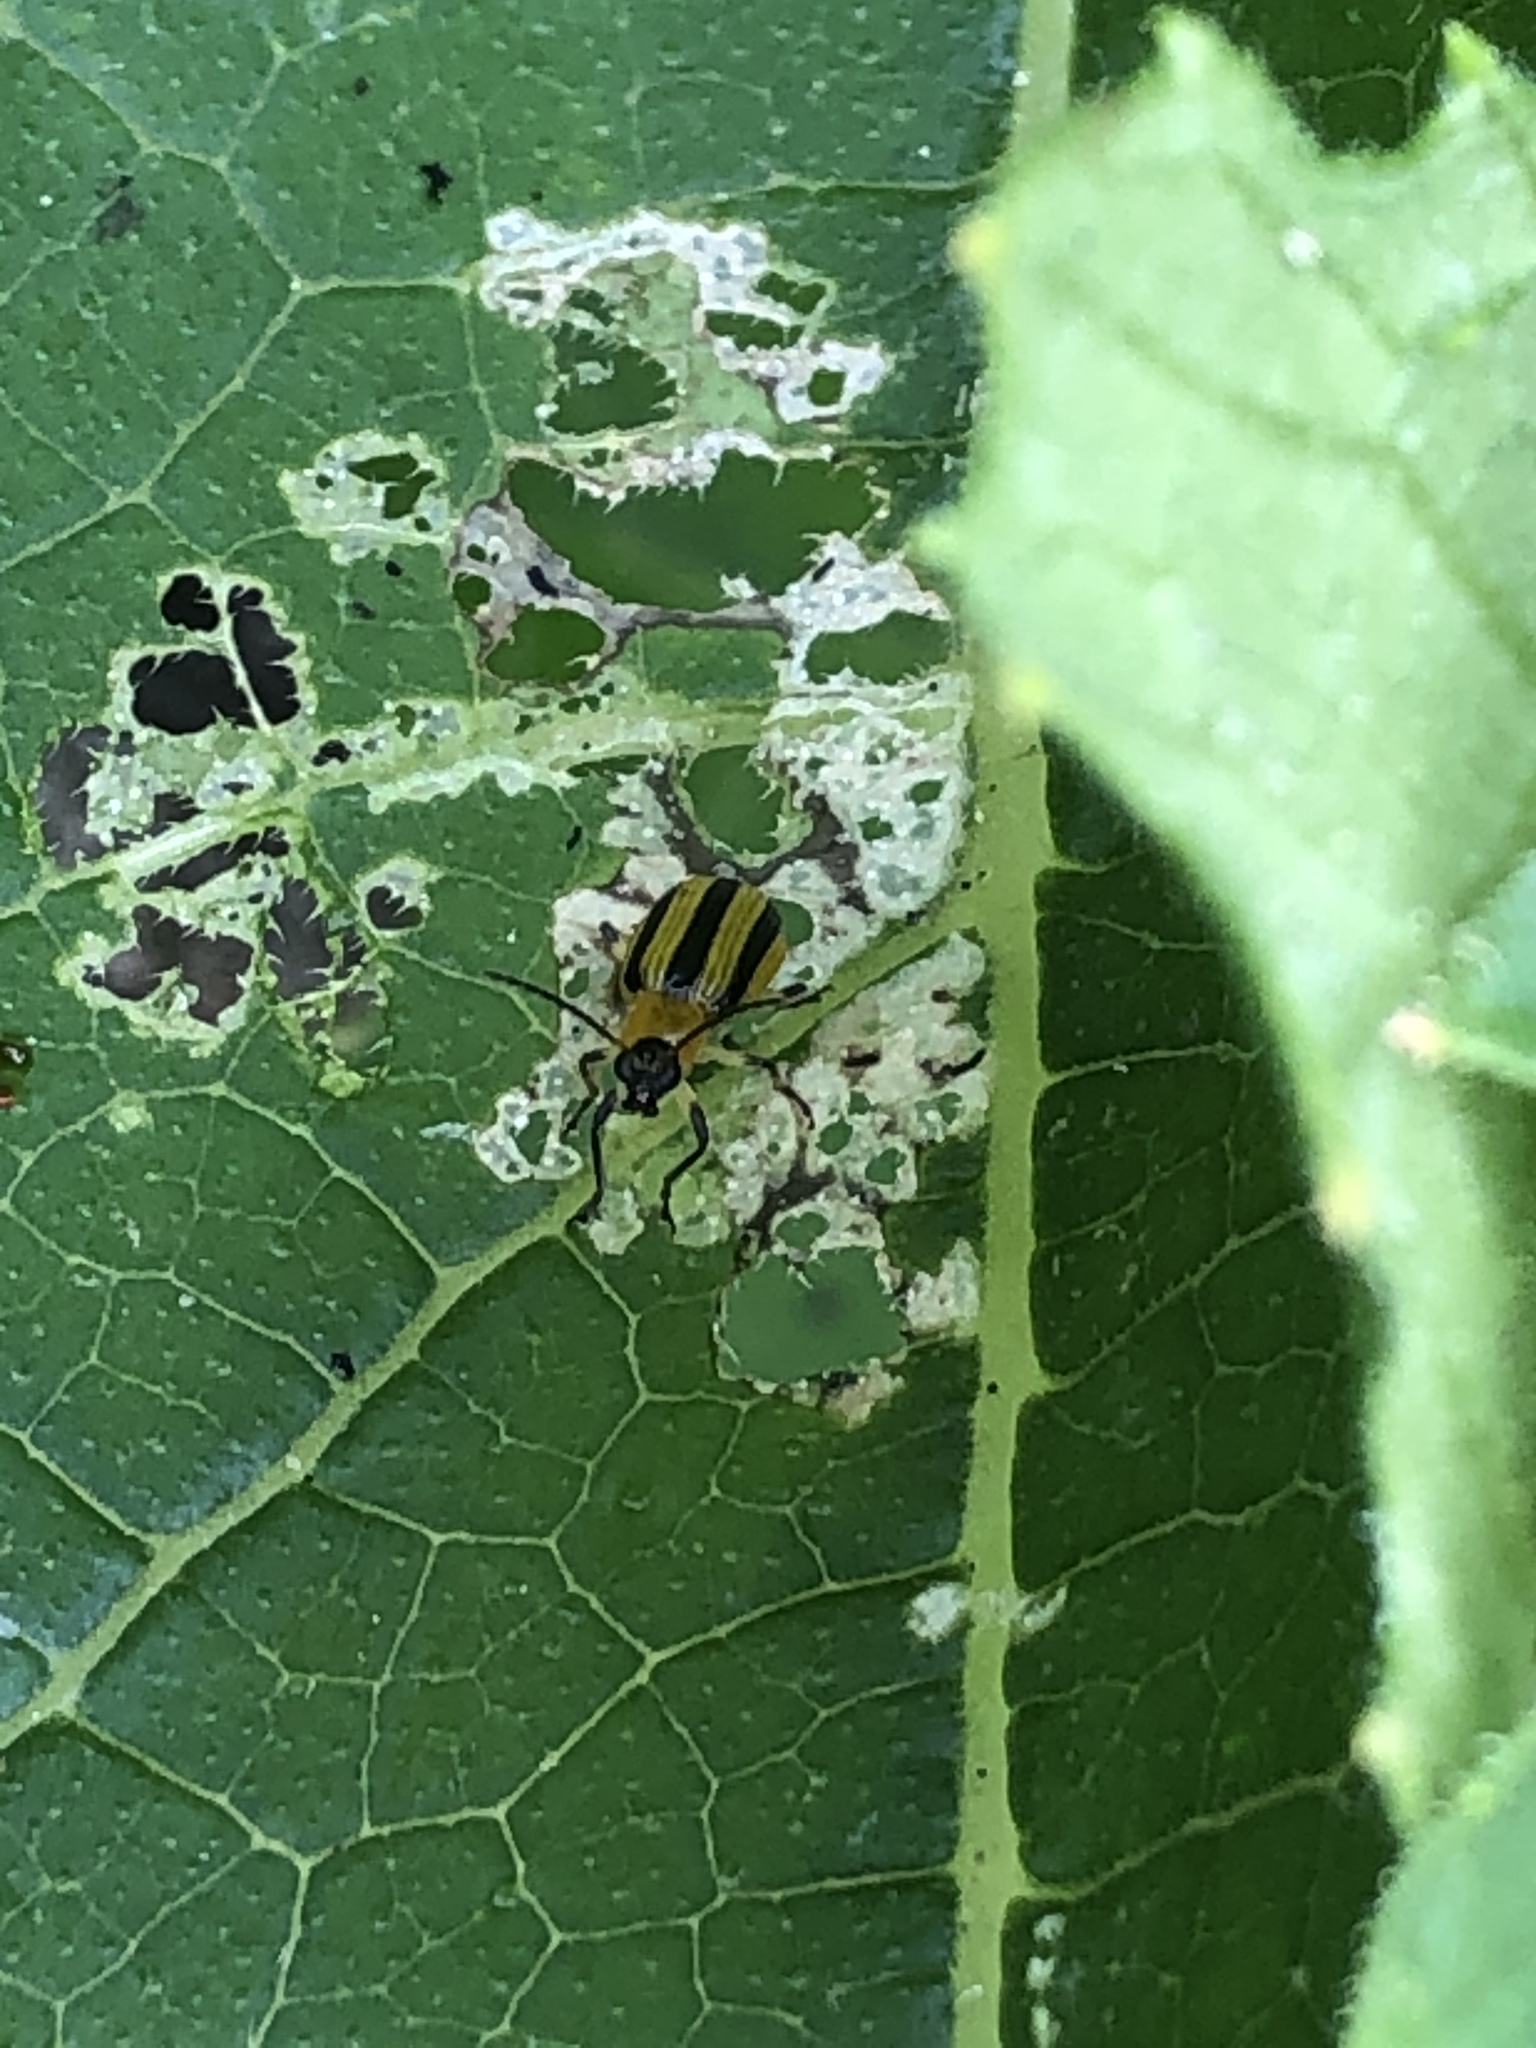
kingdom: Animalia
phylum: Arthropoda
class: Insecta
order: Coleoptera
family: Chrysomelidae
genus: Acalymma
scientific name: Acalymma vittatum
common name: Striped cucumber beetle
